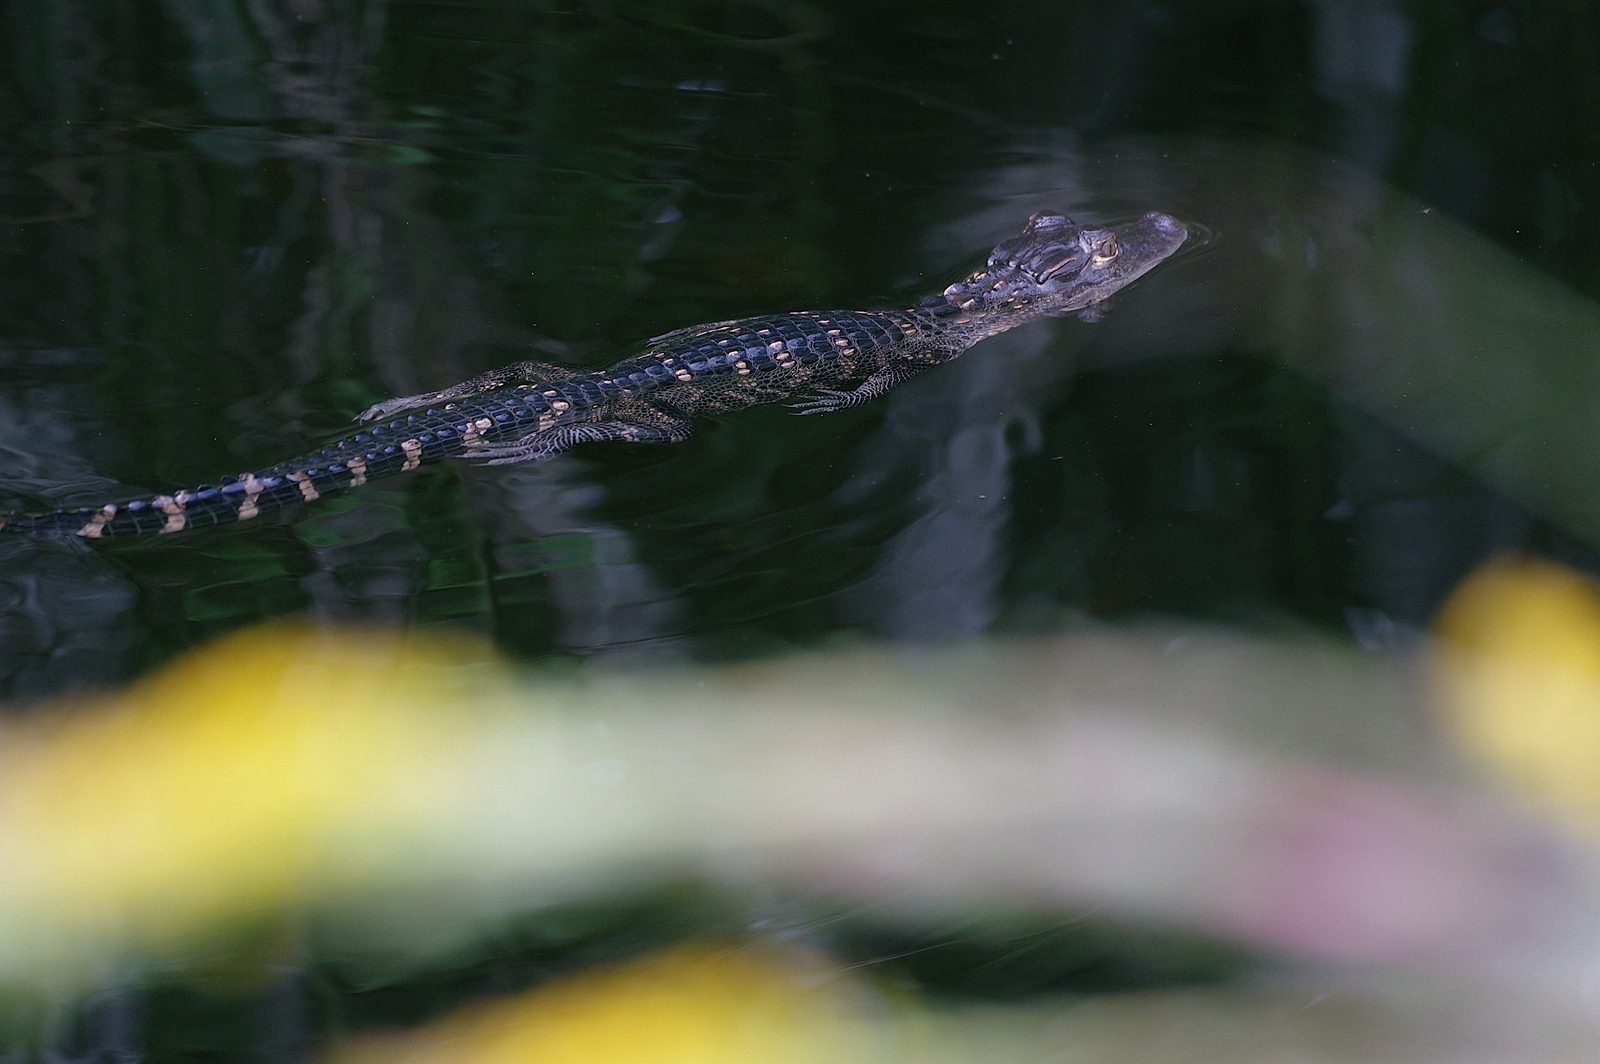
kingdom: Animalia
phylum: Chordata
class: Crocodylia
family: Alligatoridae
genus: Alligator
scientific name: Alligator mississippiensis
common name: American alligator
